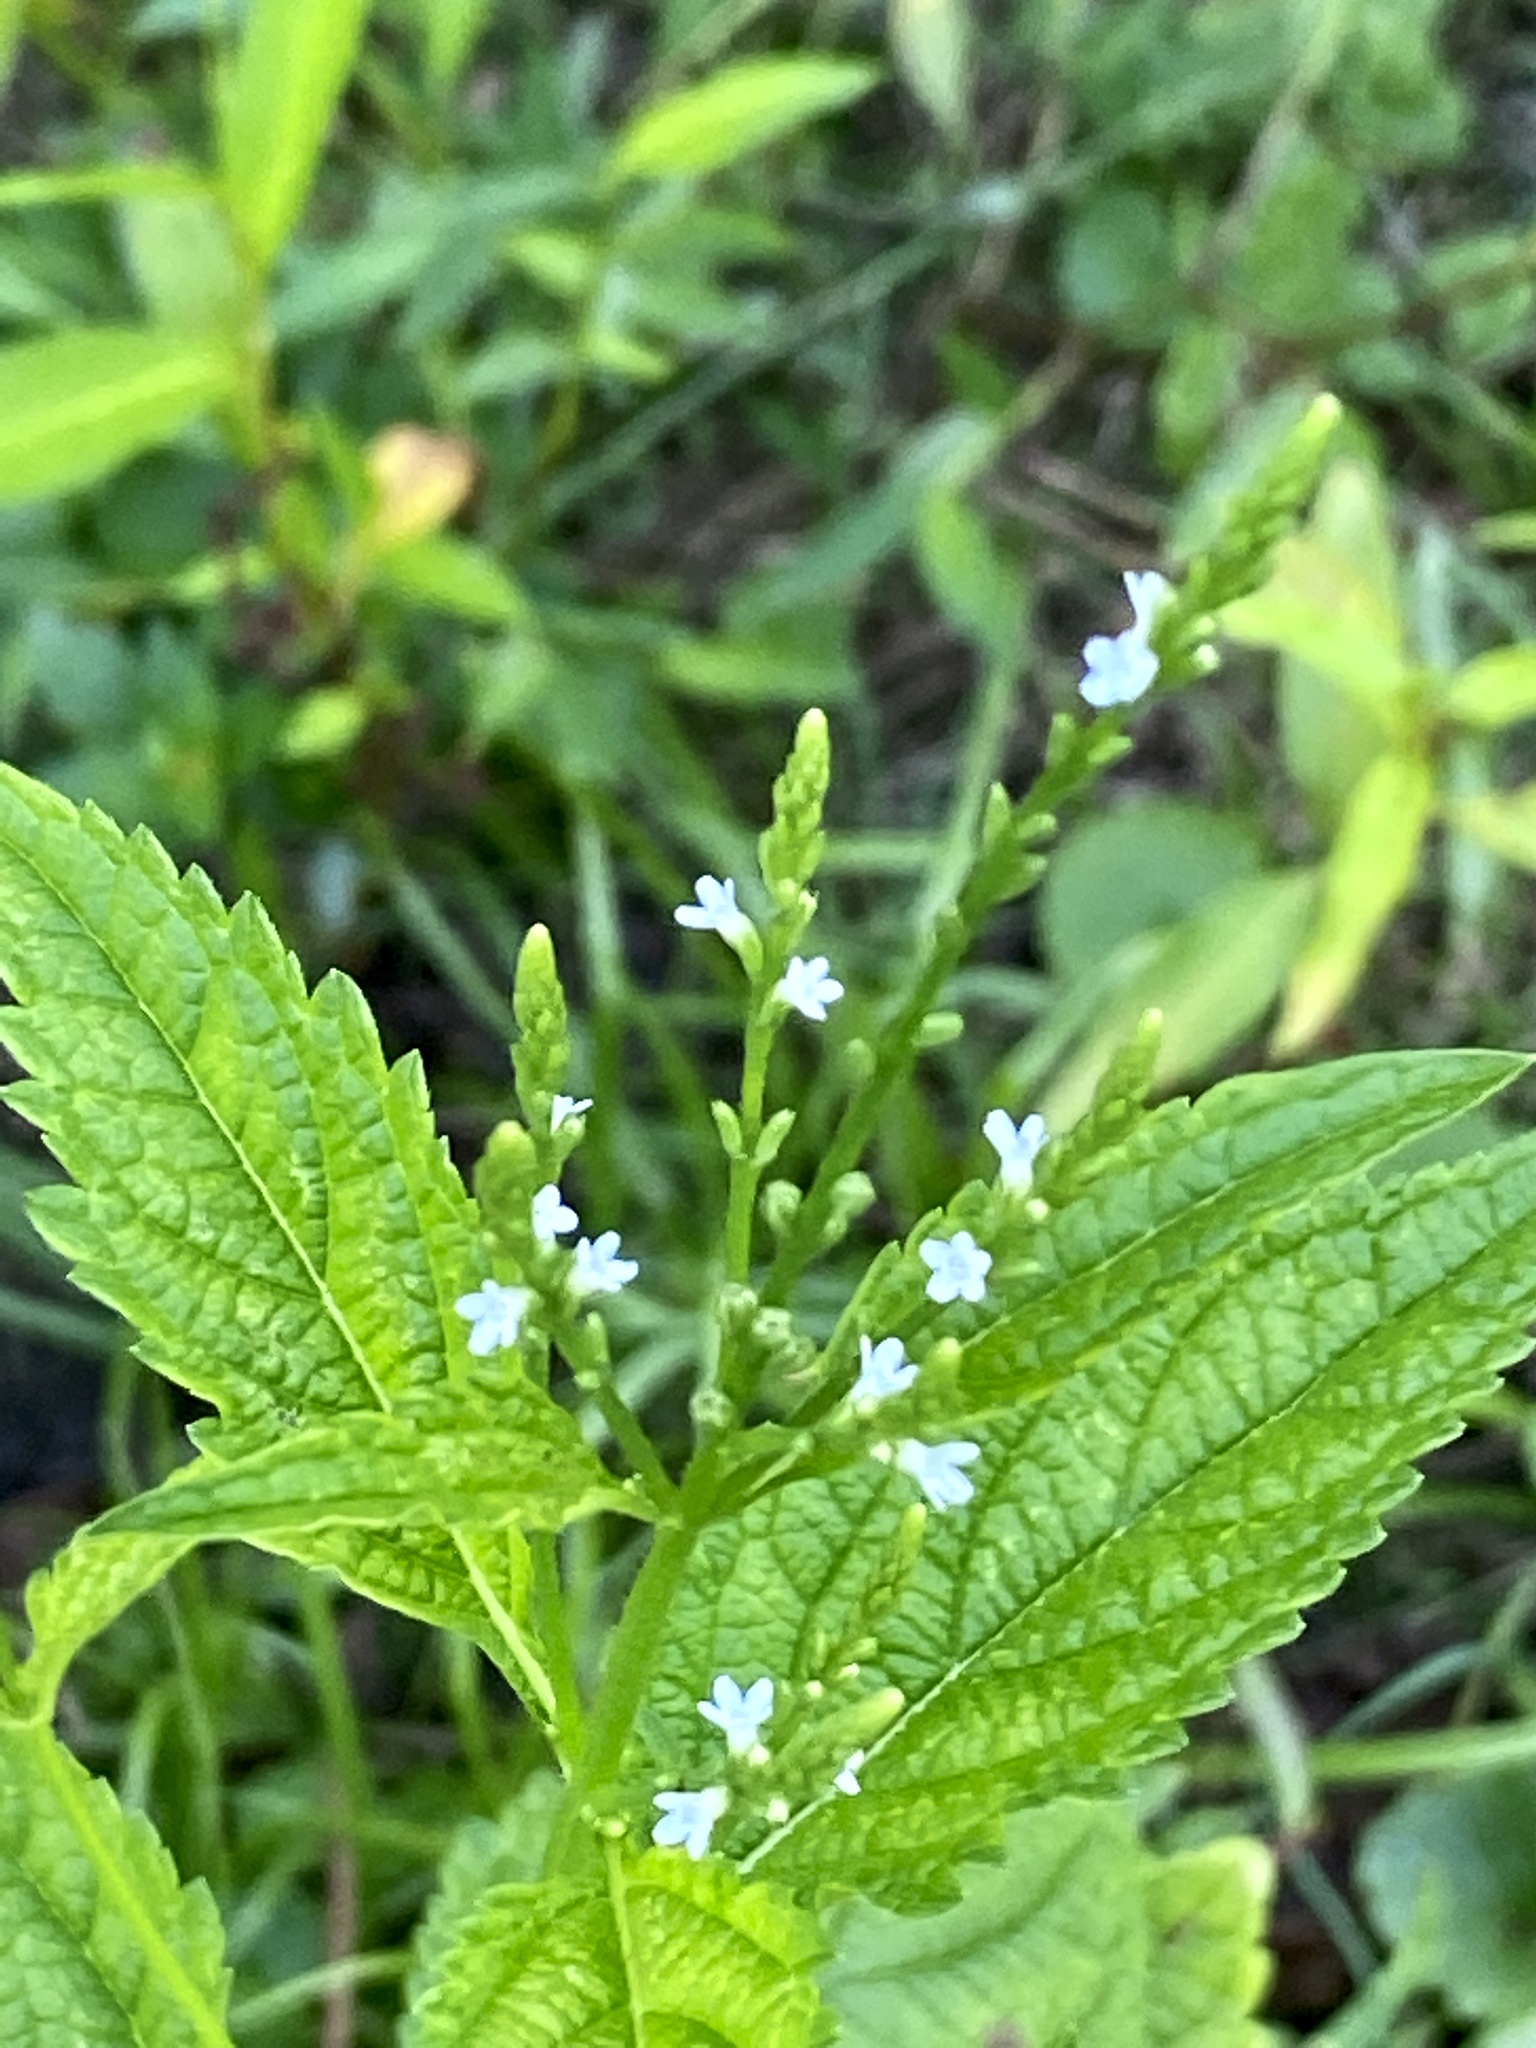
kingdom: Plantae
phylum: Tracheophyta
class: Magnoliopsida
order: Lamiales
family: Verbenaceae
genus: Verbena
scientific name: Verbena urticifolia
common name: Nettle-leaved vervain
